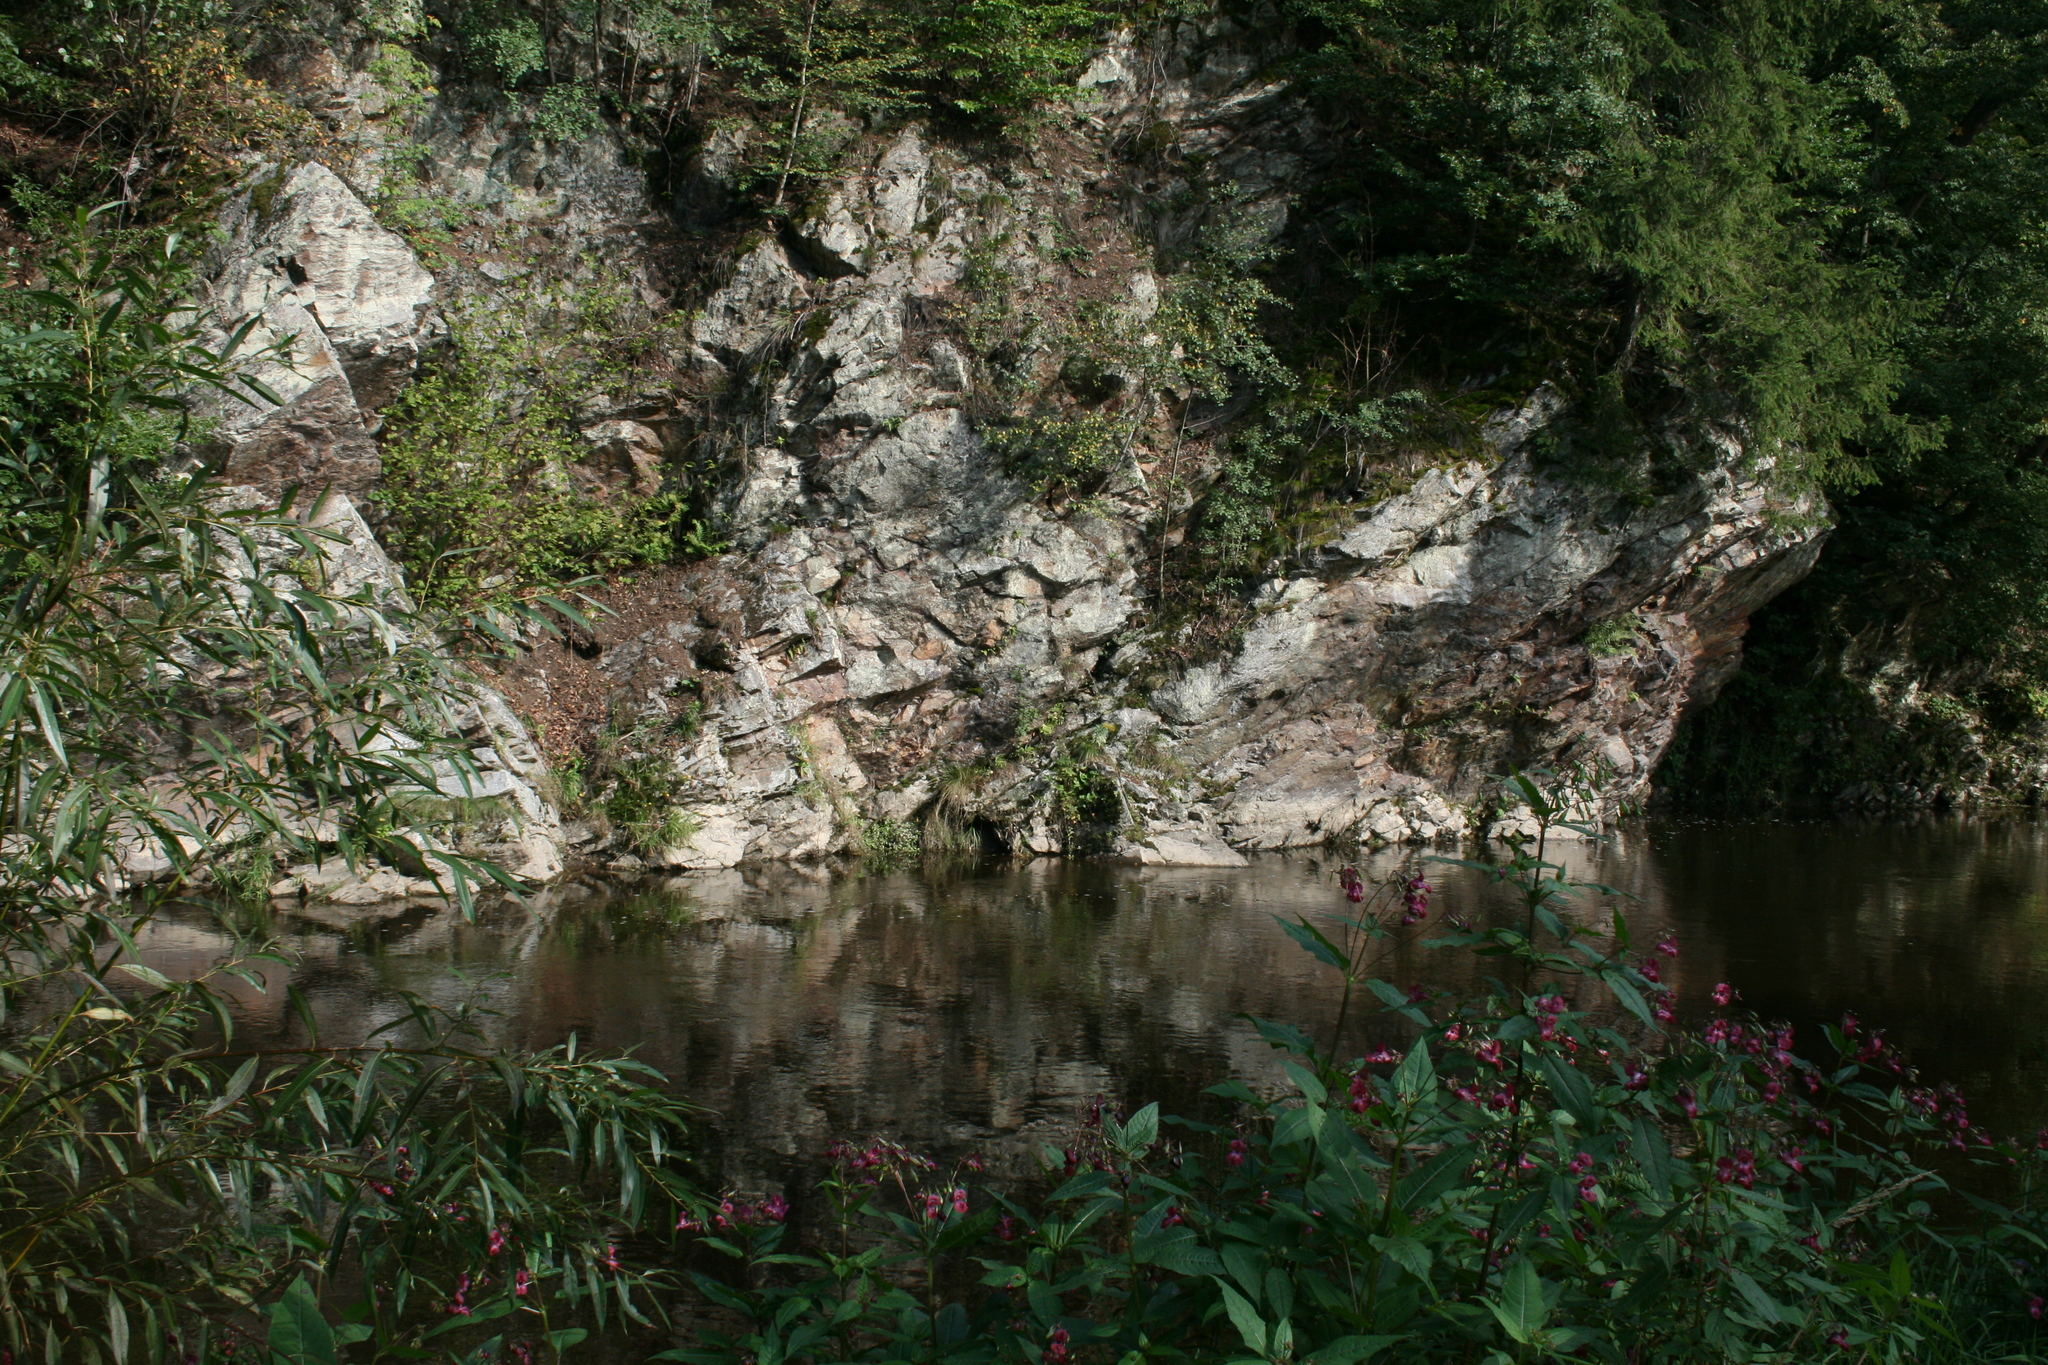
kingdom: Plantae
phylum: Tracheophyta
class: Magnoliopsida
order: Ericales
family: Balsaminaceae
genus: Impatiens
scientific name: Impatiens glandulifera
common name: Himalayan balsam
